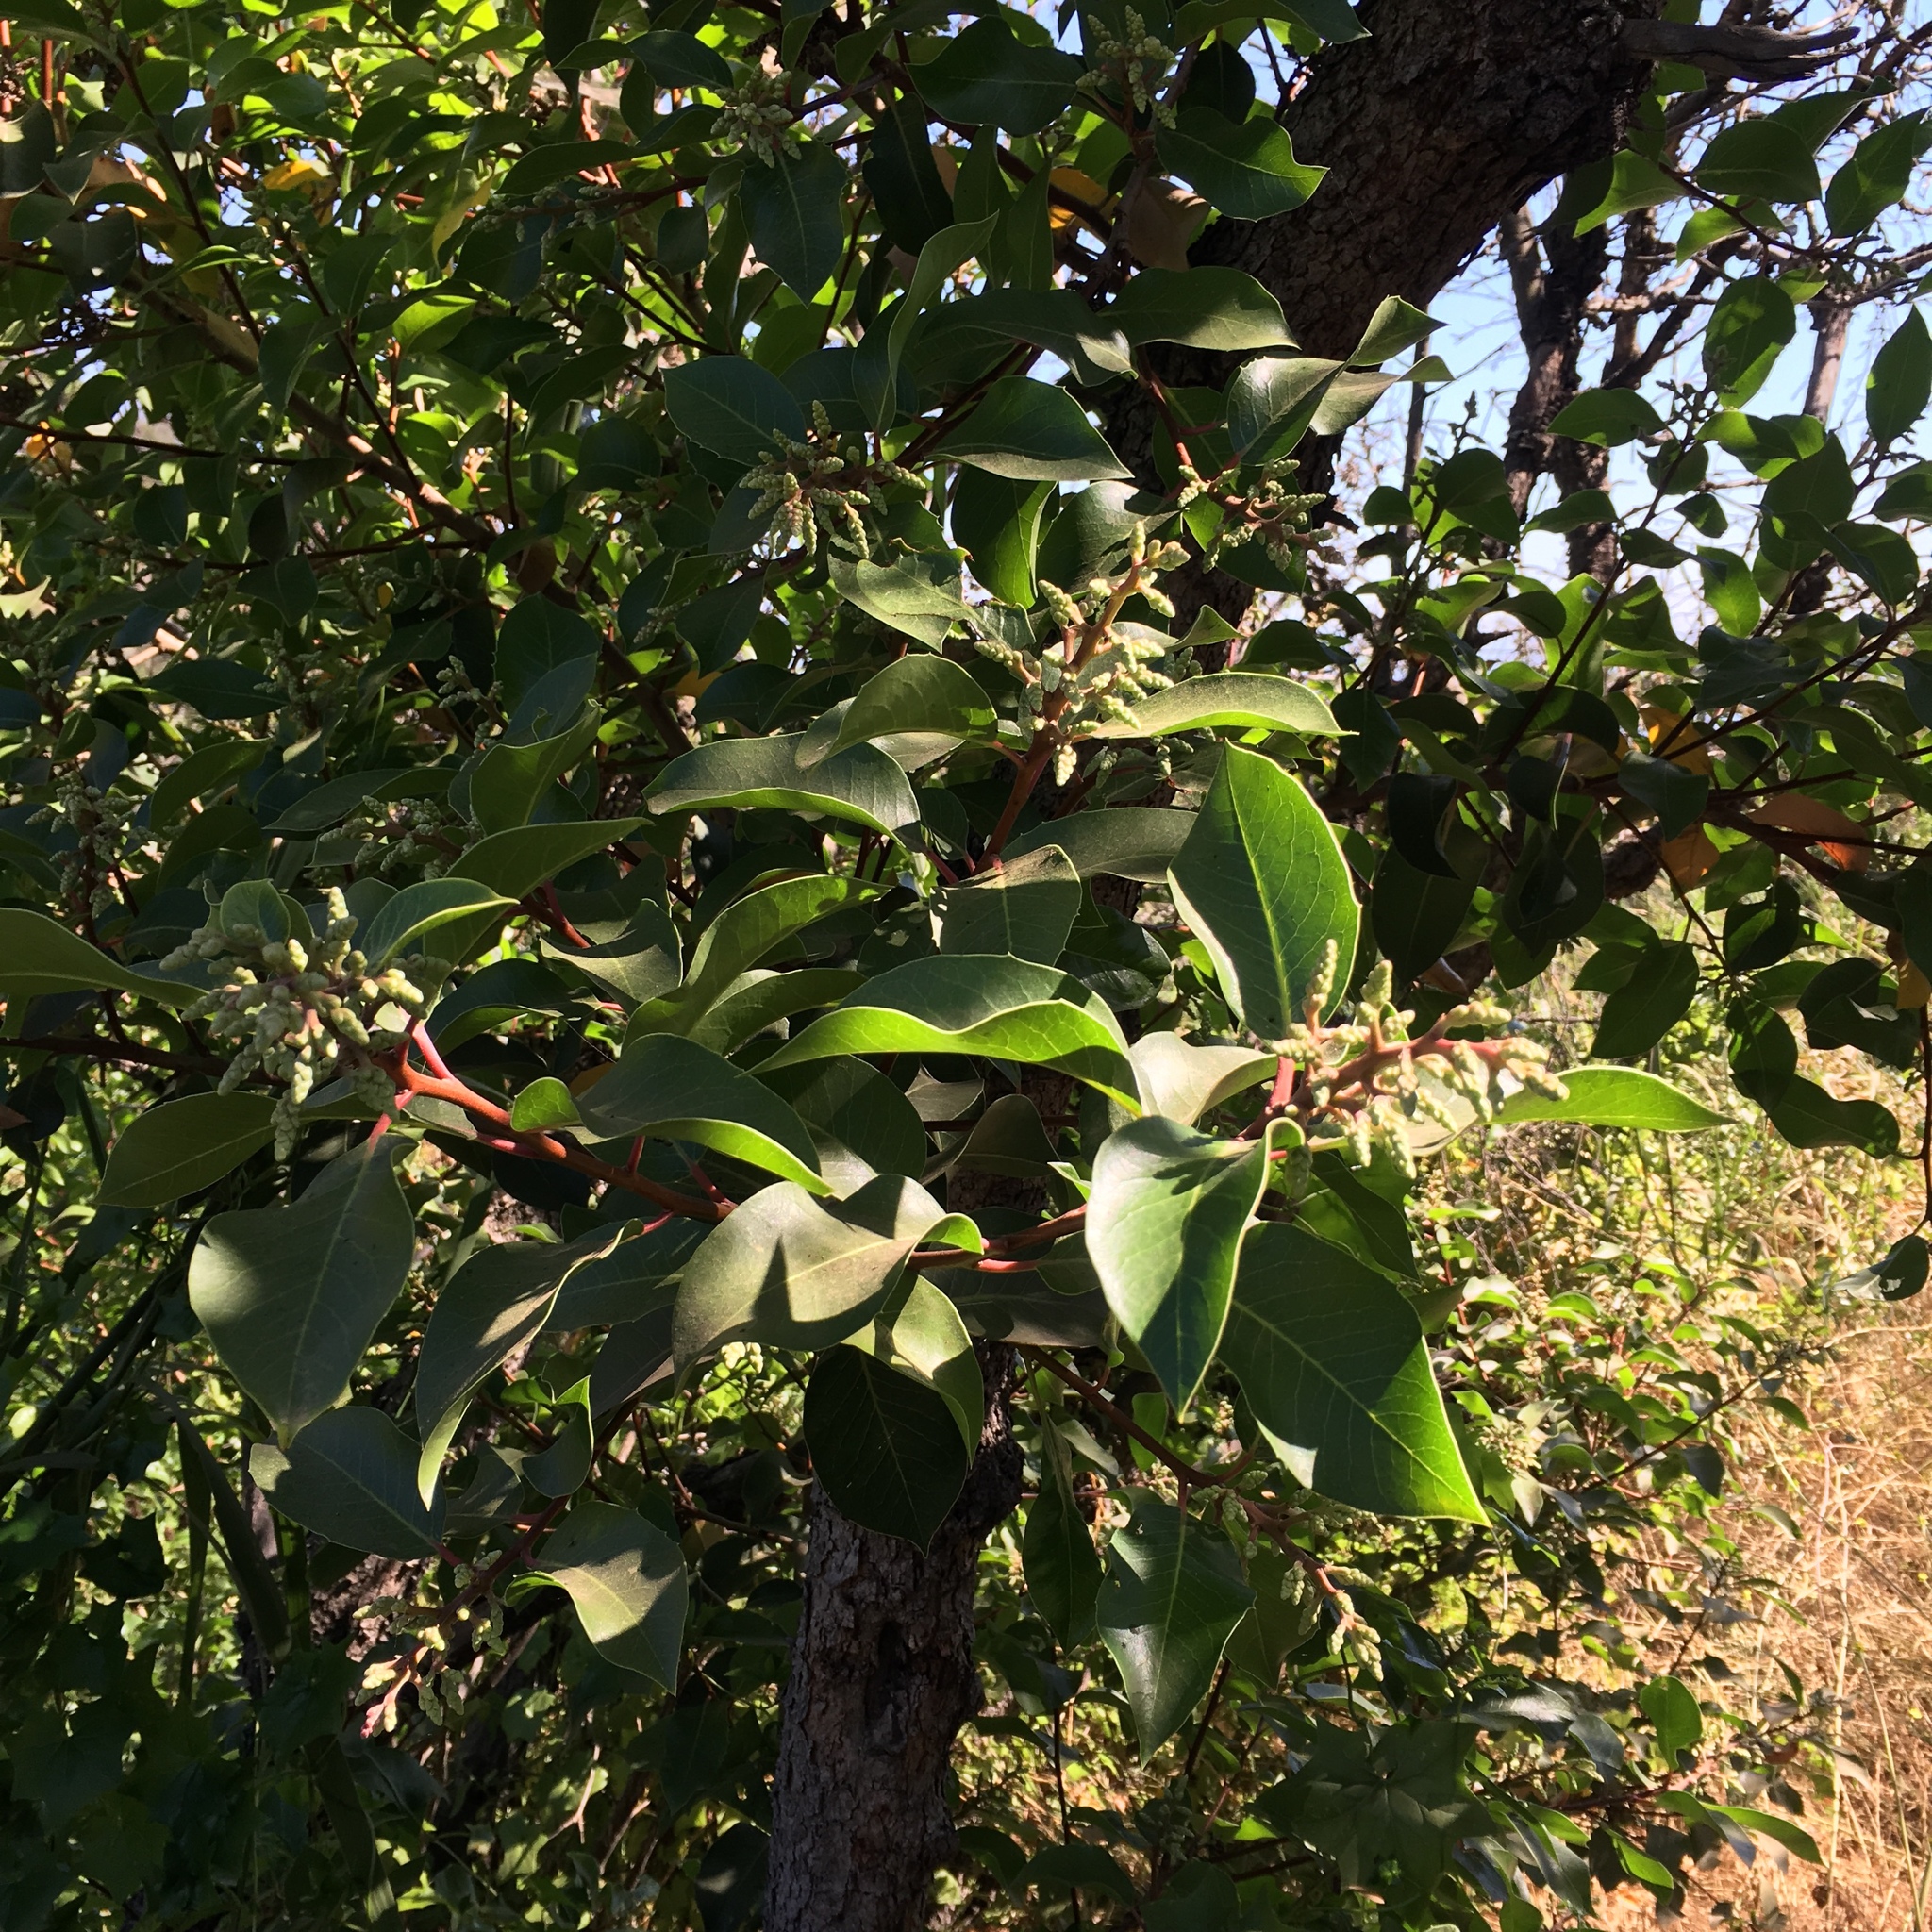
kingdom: Plantae
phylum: Tracheophyta
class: Magnoliopsida
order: Sapindales
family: Anacardiaceae
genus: Rhus
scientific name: Rhus ovata
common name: Sugar sumac
